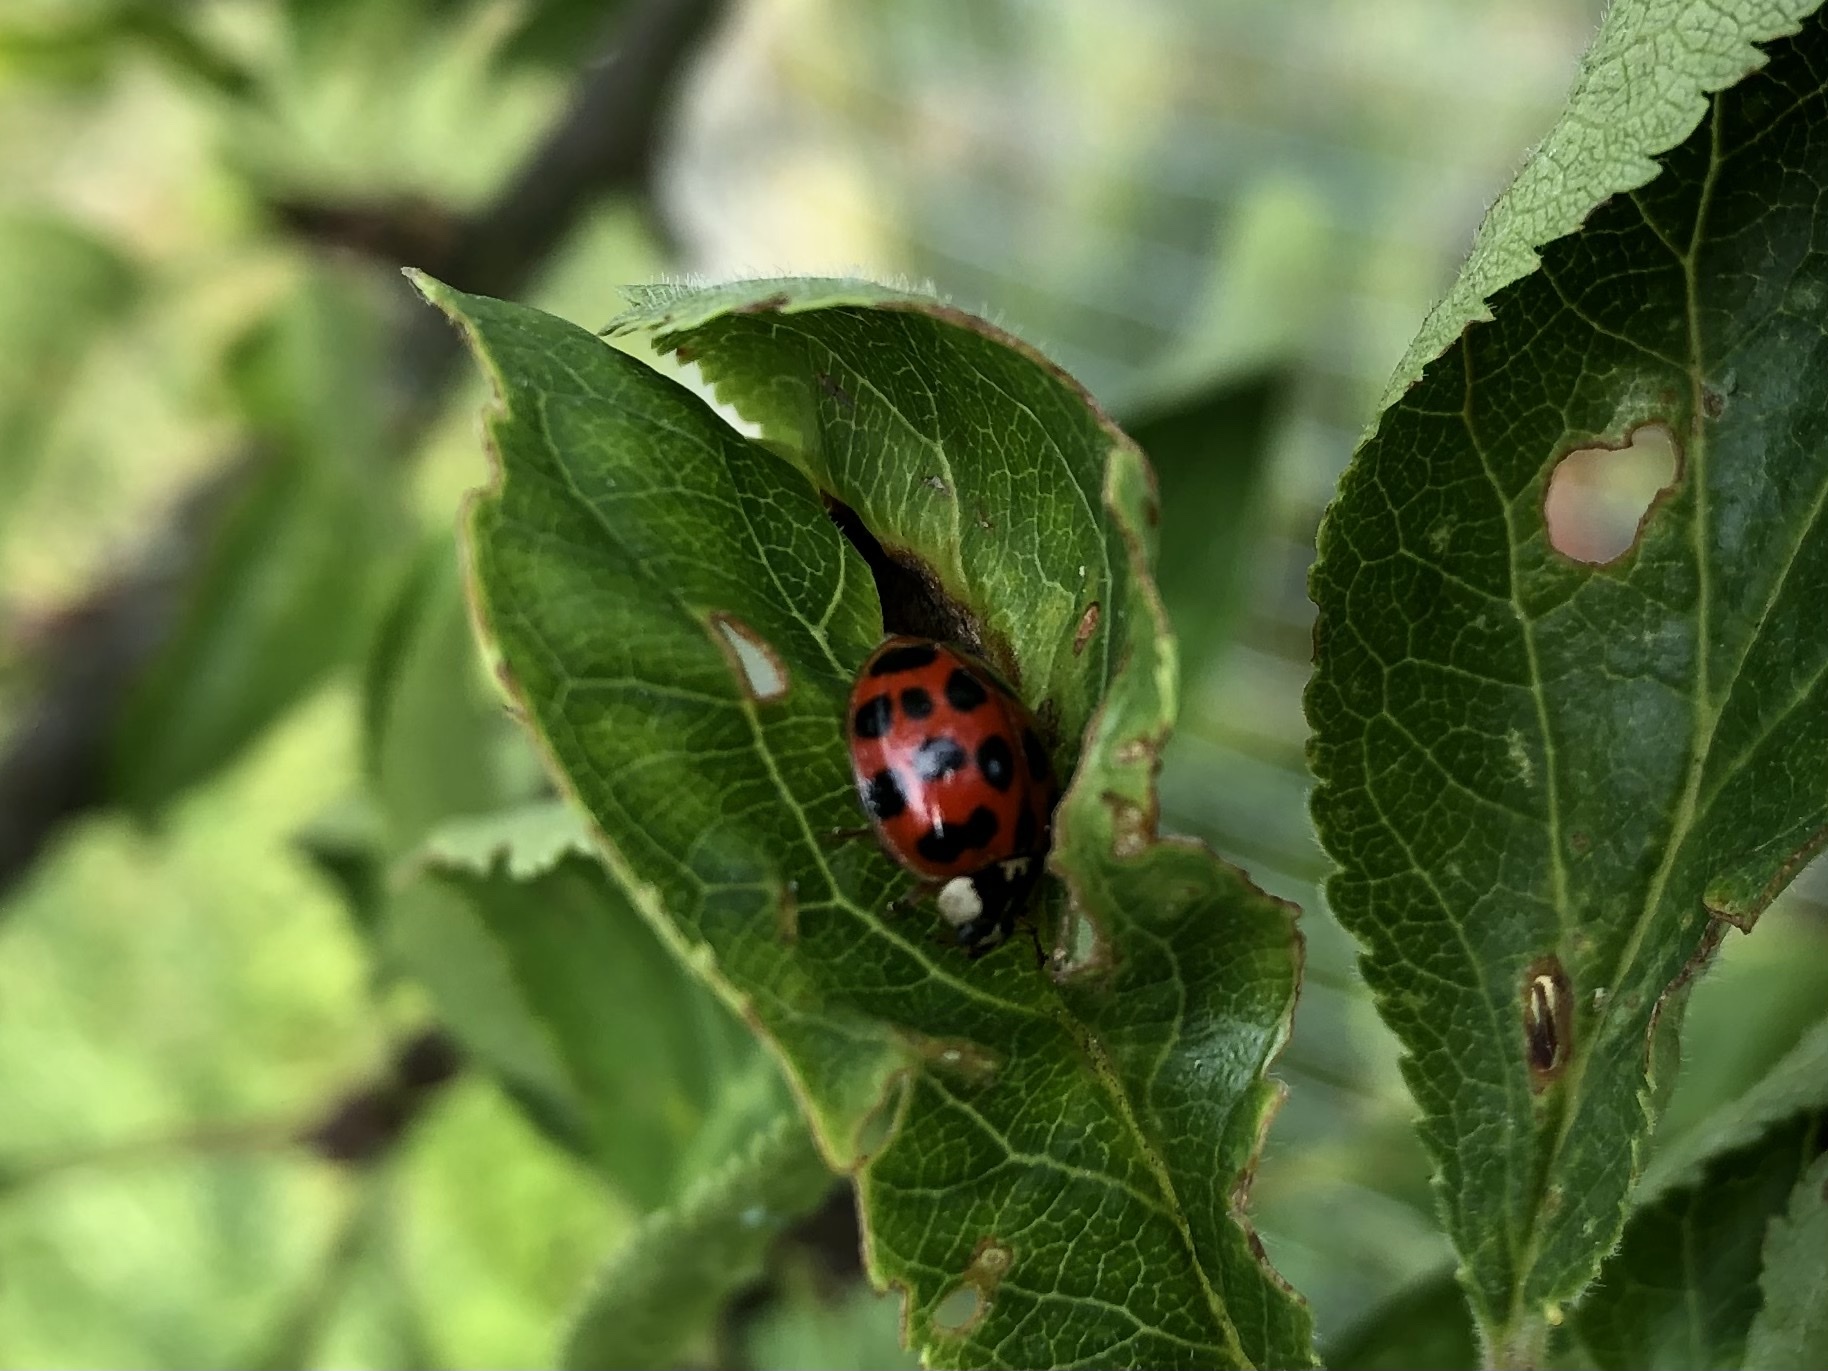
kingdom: Animalia
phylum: Arthropoda
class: Insecta
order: Coleoptera
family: Coccinellidae
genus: Harmonia
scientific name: Harmonia axyridis
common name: Harlequin ladybird
